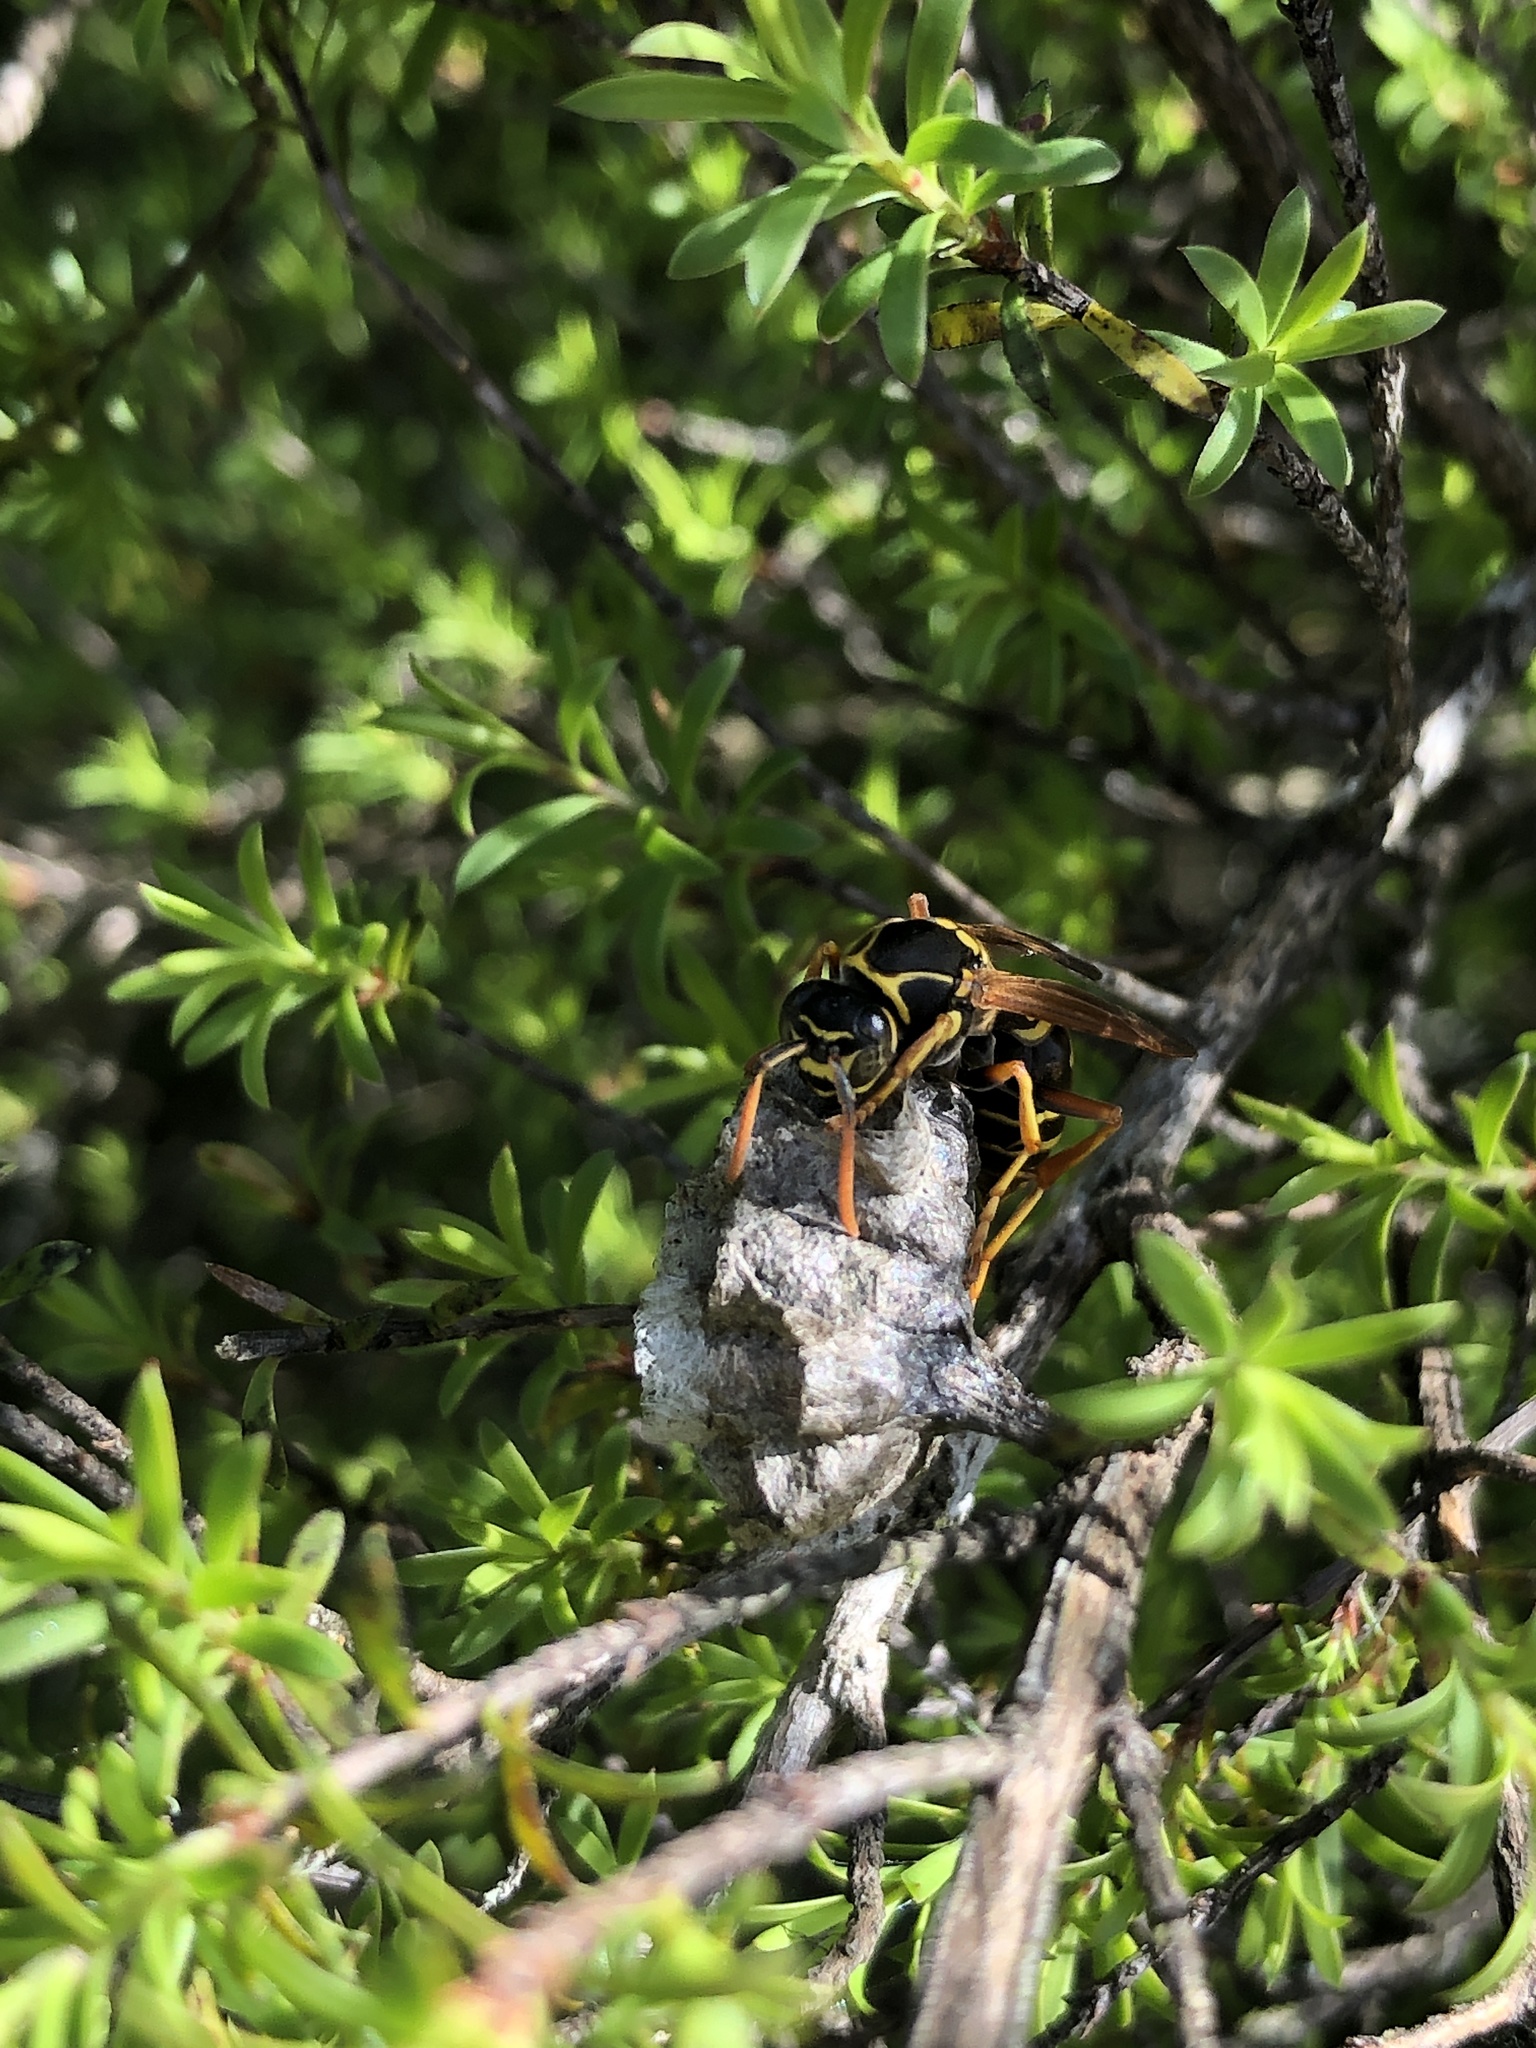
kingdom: Animalia
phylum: Arthropoda
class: Insecta
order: Hymenoptera
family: Eumenidae
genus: Polistes
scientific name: Polistes chinensis
